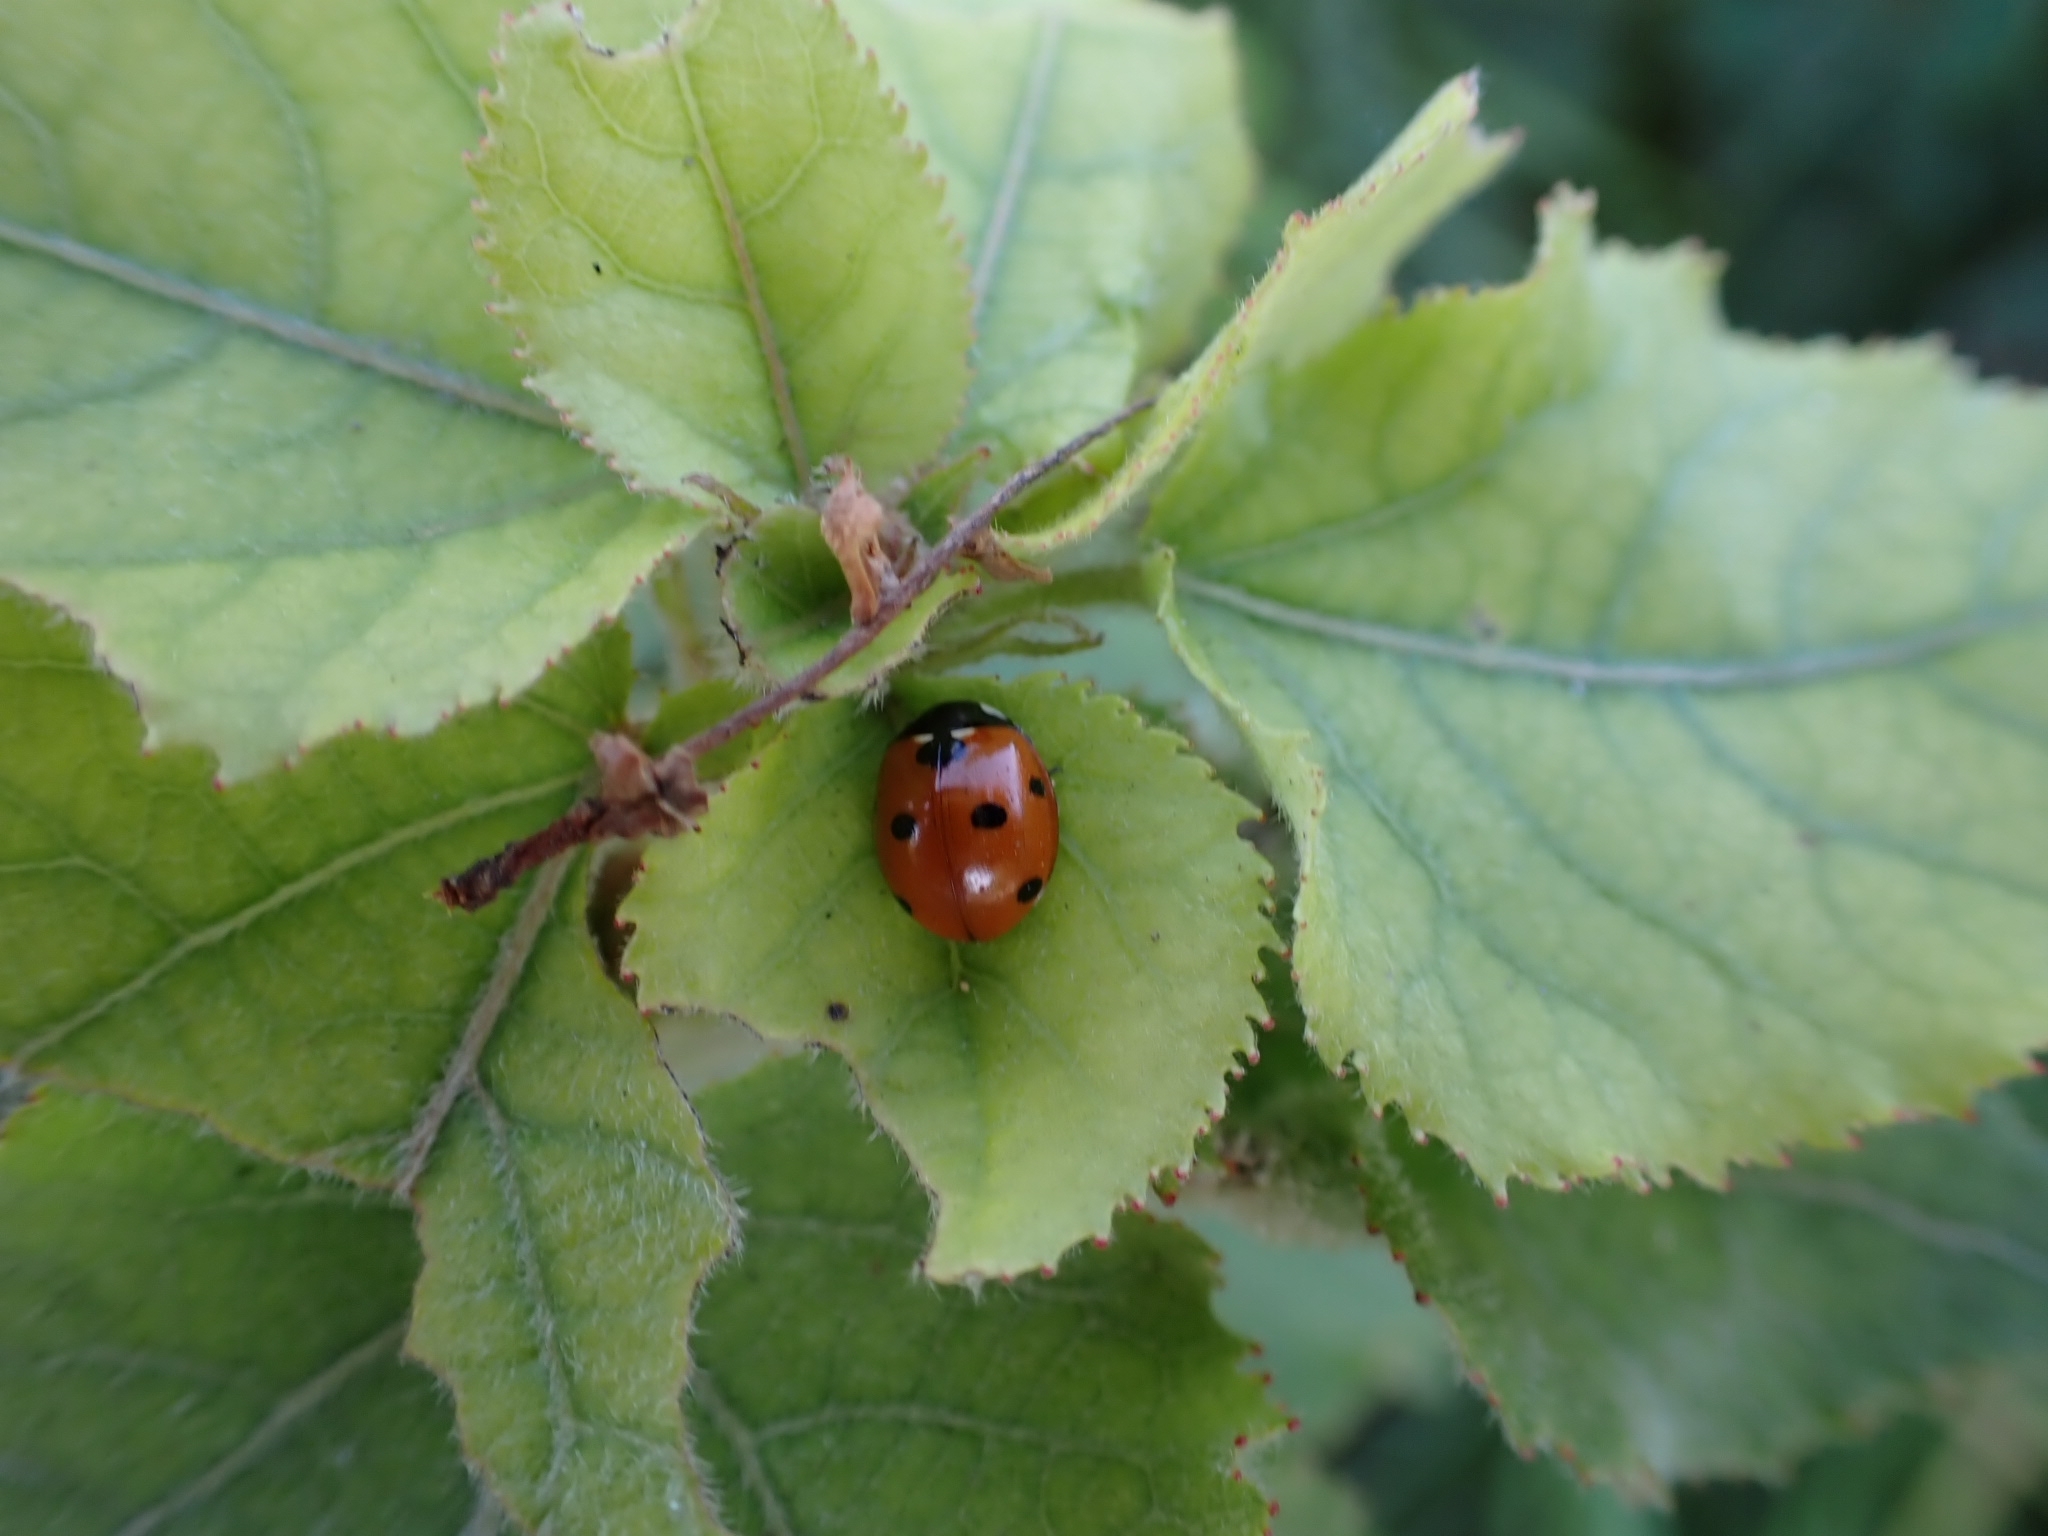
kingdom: Animalia
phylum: Arthropoda
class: Insecta
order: Coleoptera
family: Coccinellidae
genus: Coccinella
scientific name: Coccinella septempunctata
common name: Sevenspotted lady beetle
